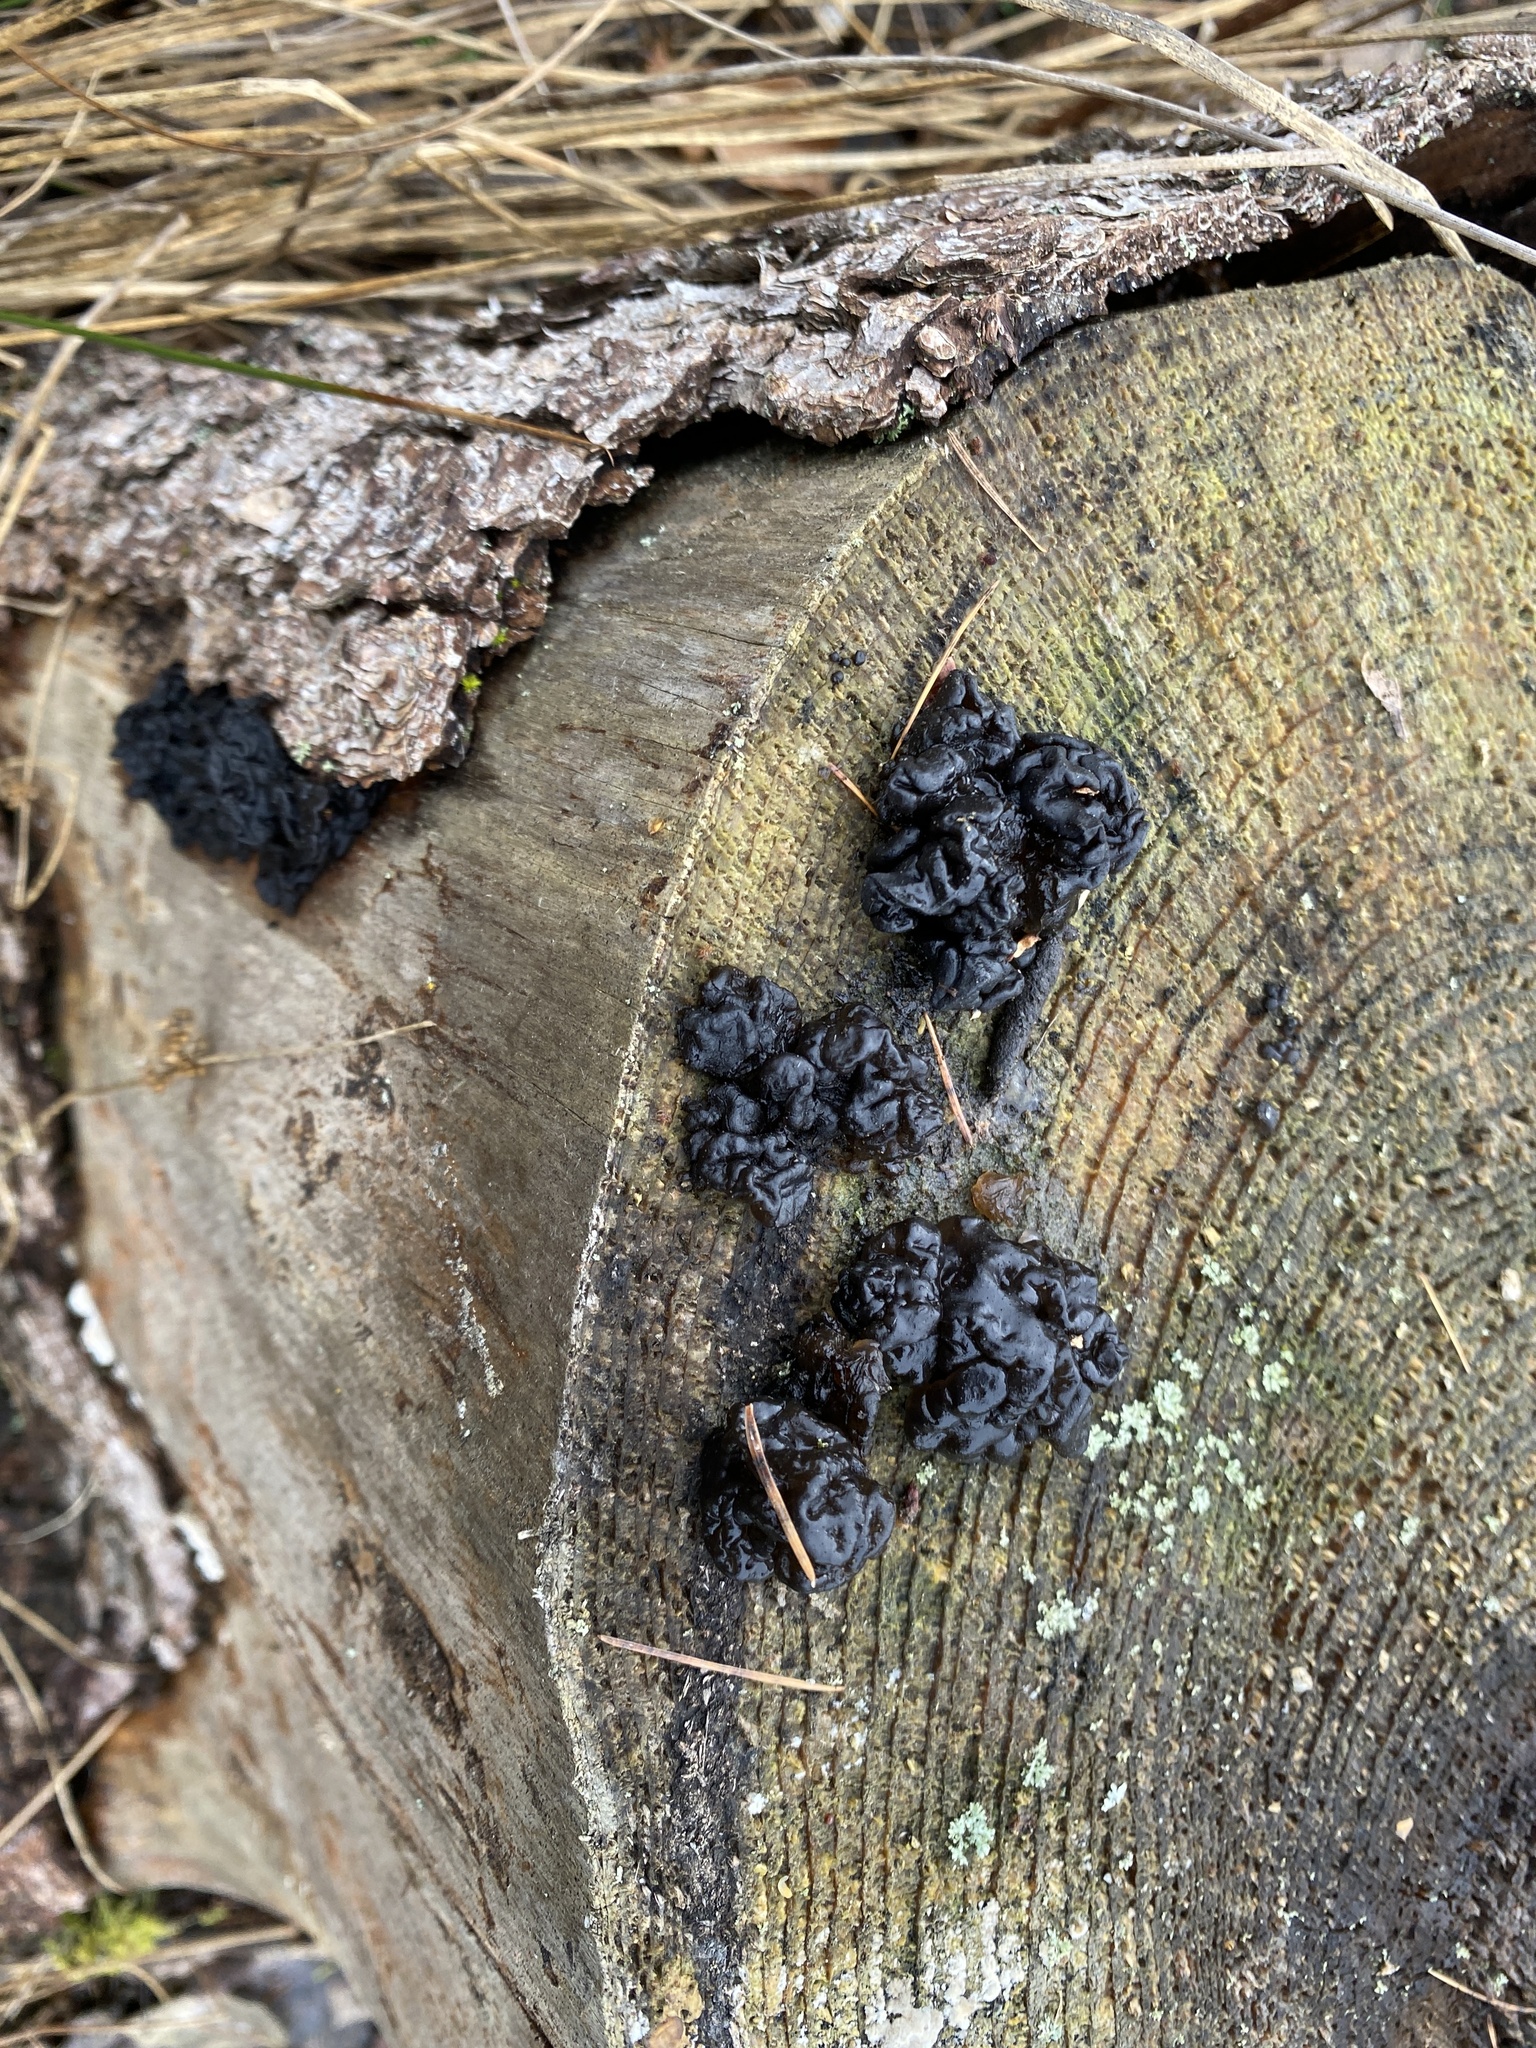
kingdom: Fungi
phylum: Basidiomycota
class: Agaricomycetes
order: Auriculariales
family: Auriculariaceae
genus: Exidia
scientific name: Exidia nigricans
